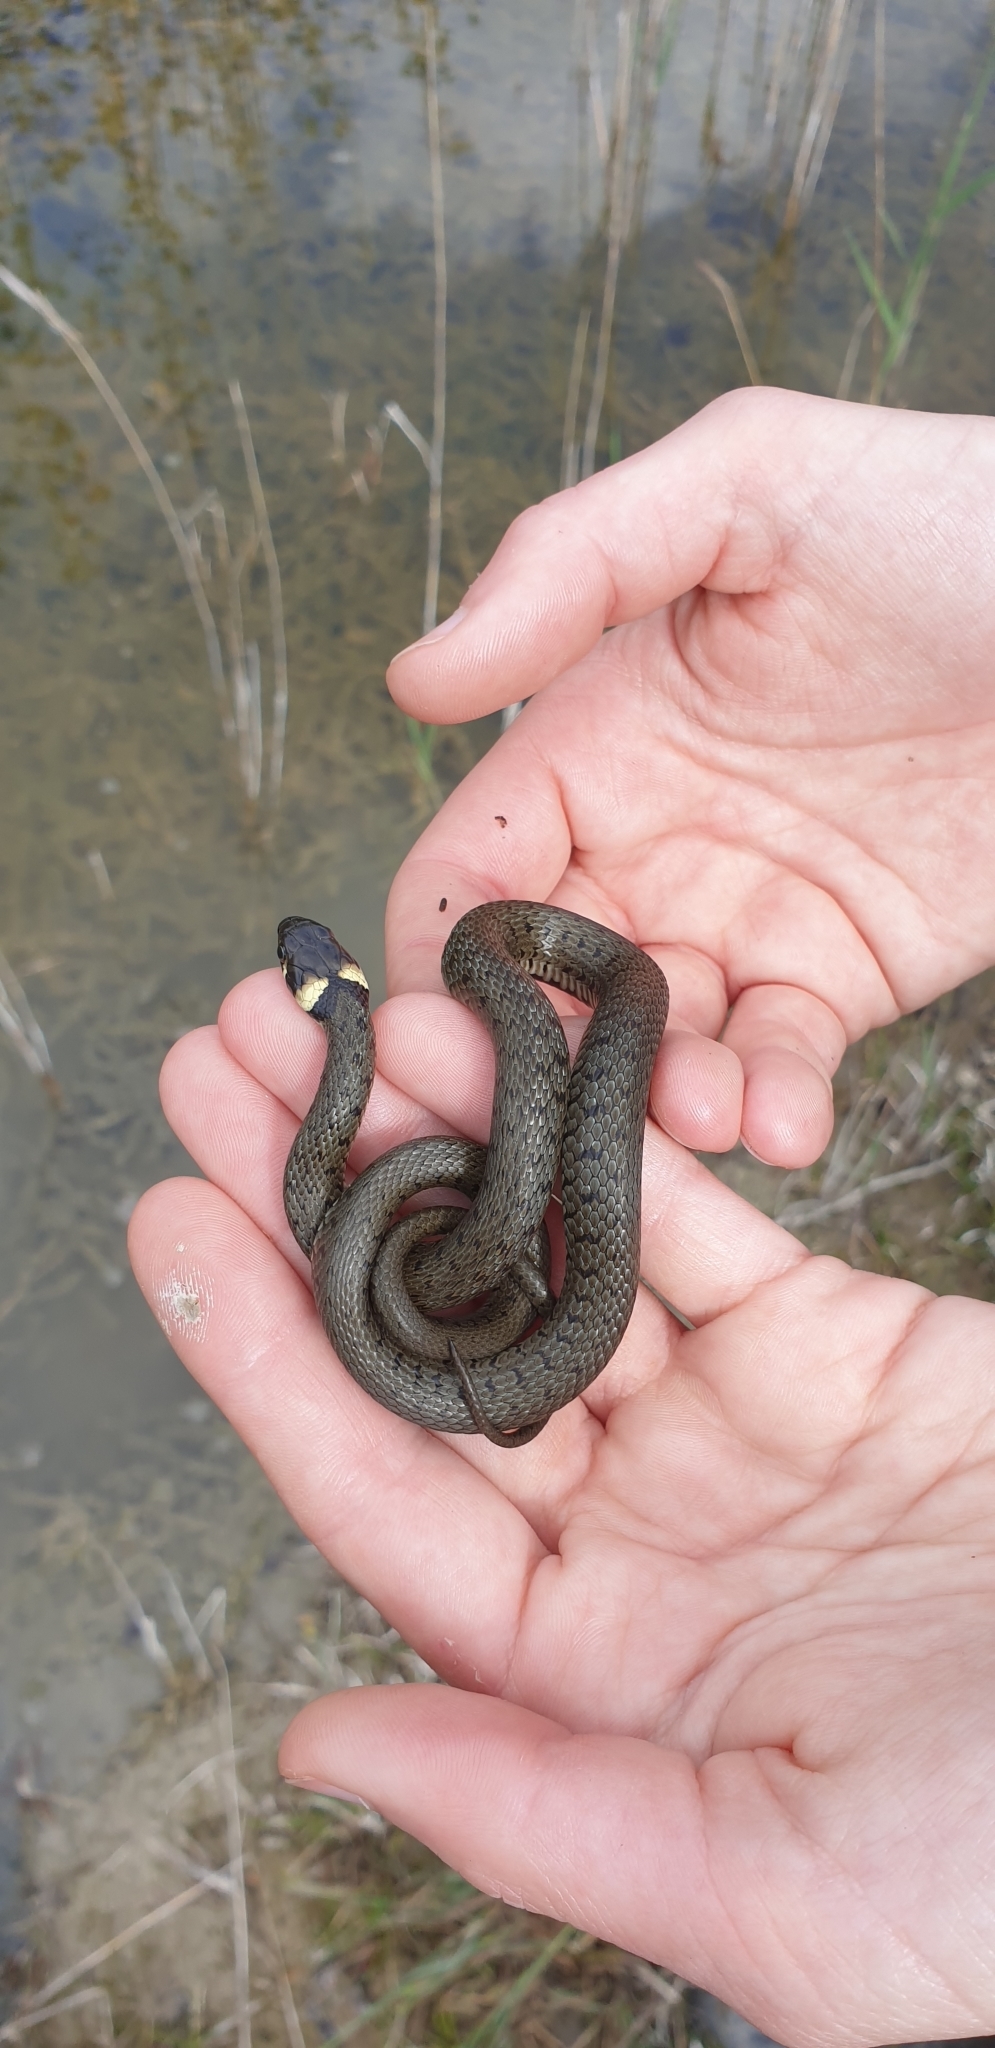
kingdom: Animalia
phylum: Chordata
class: Squamata
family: Colubridae
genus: Natrix
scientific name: Natrix natrix
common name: Grass snake
